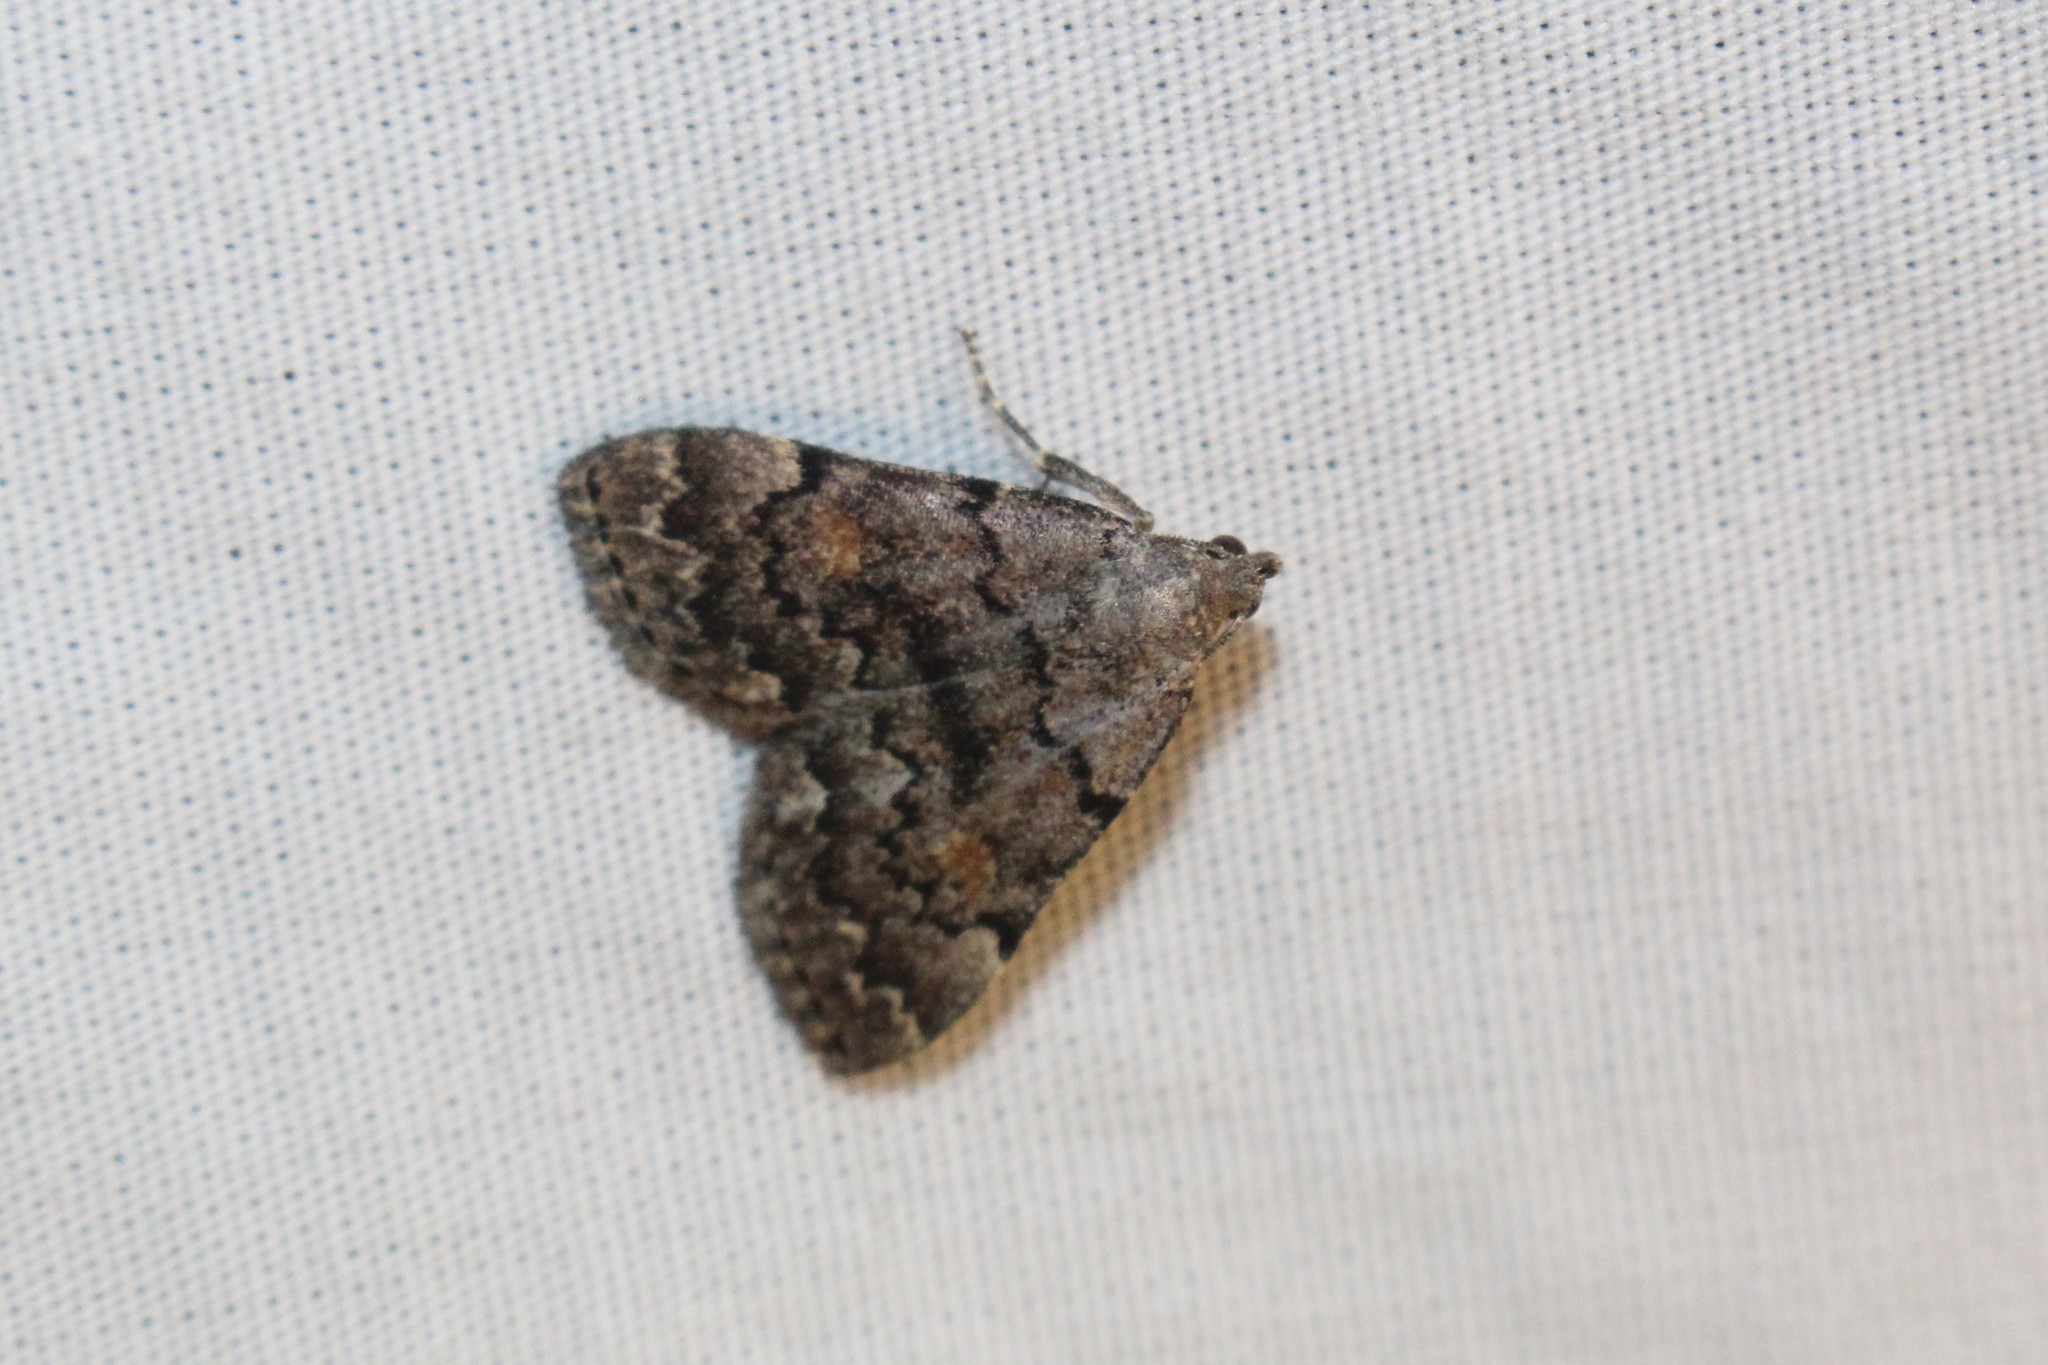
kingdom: Animalia
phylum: Arthropoda
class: Insecta
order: Lepidoptera
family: Erebidae
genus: Idia
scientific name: Idia aemula
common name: Common idia moth
